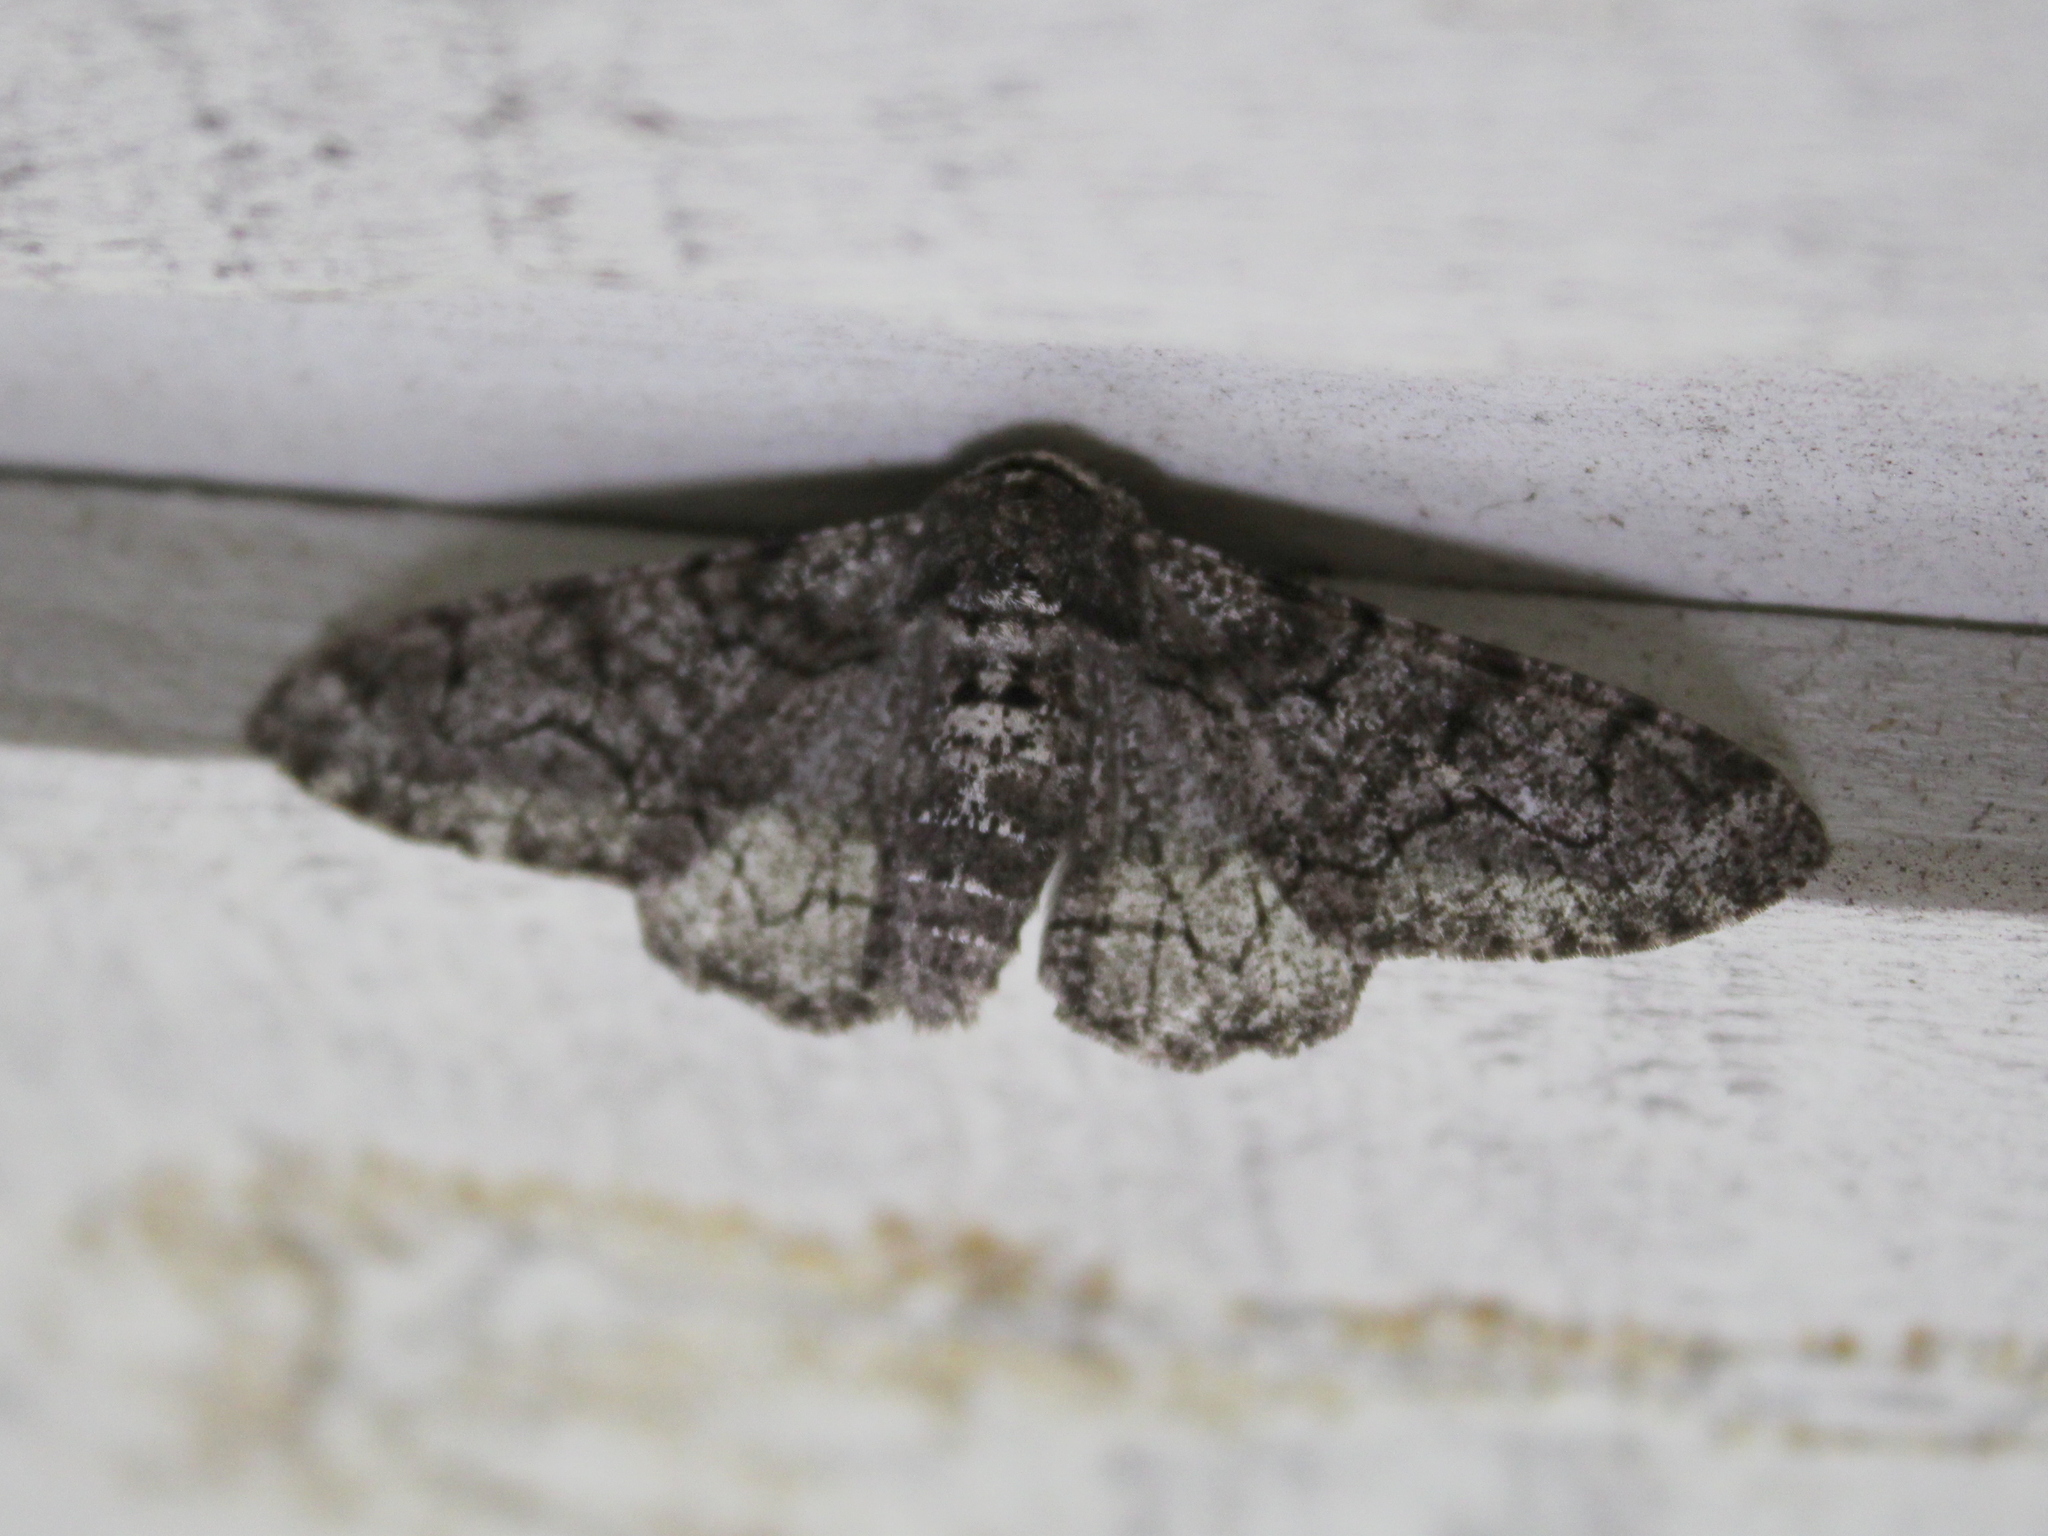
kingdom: Animalia
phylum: Arthropoda
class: Insecta
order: Lepidoptera
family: Geometridae
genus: Biston
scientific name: Biston betularia
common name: Peppered moth
